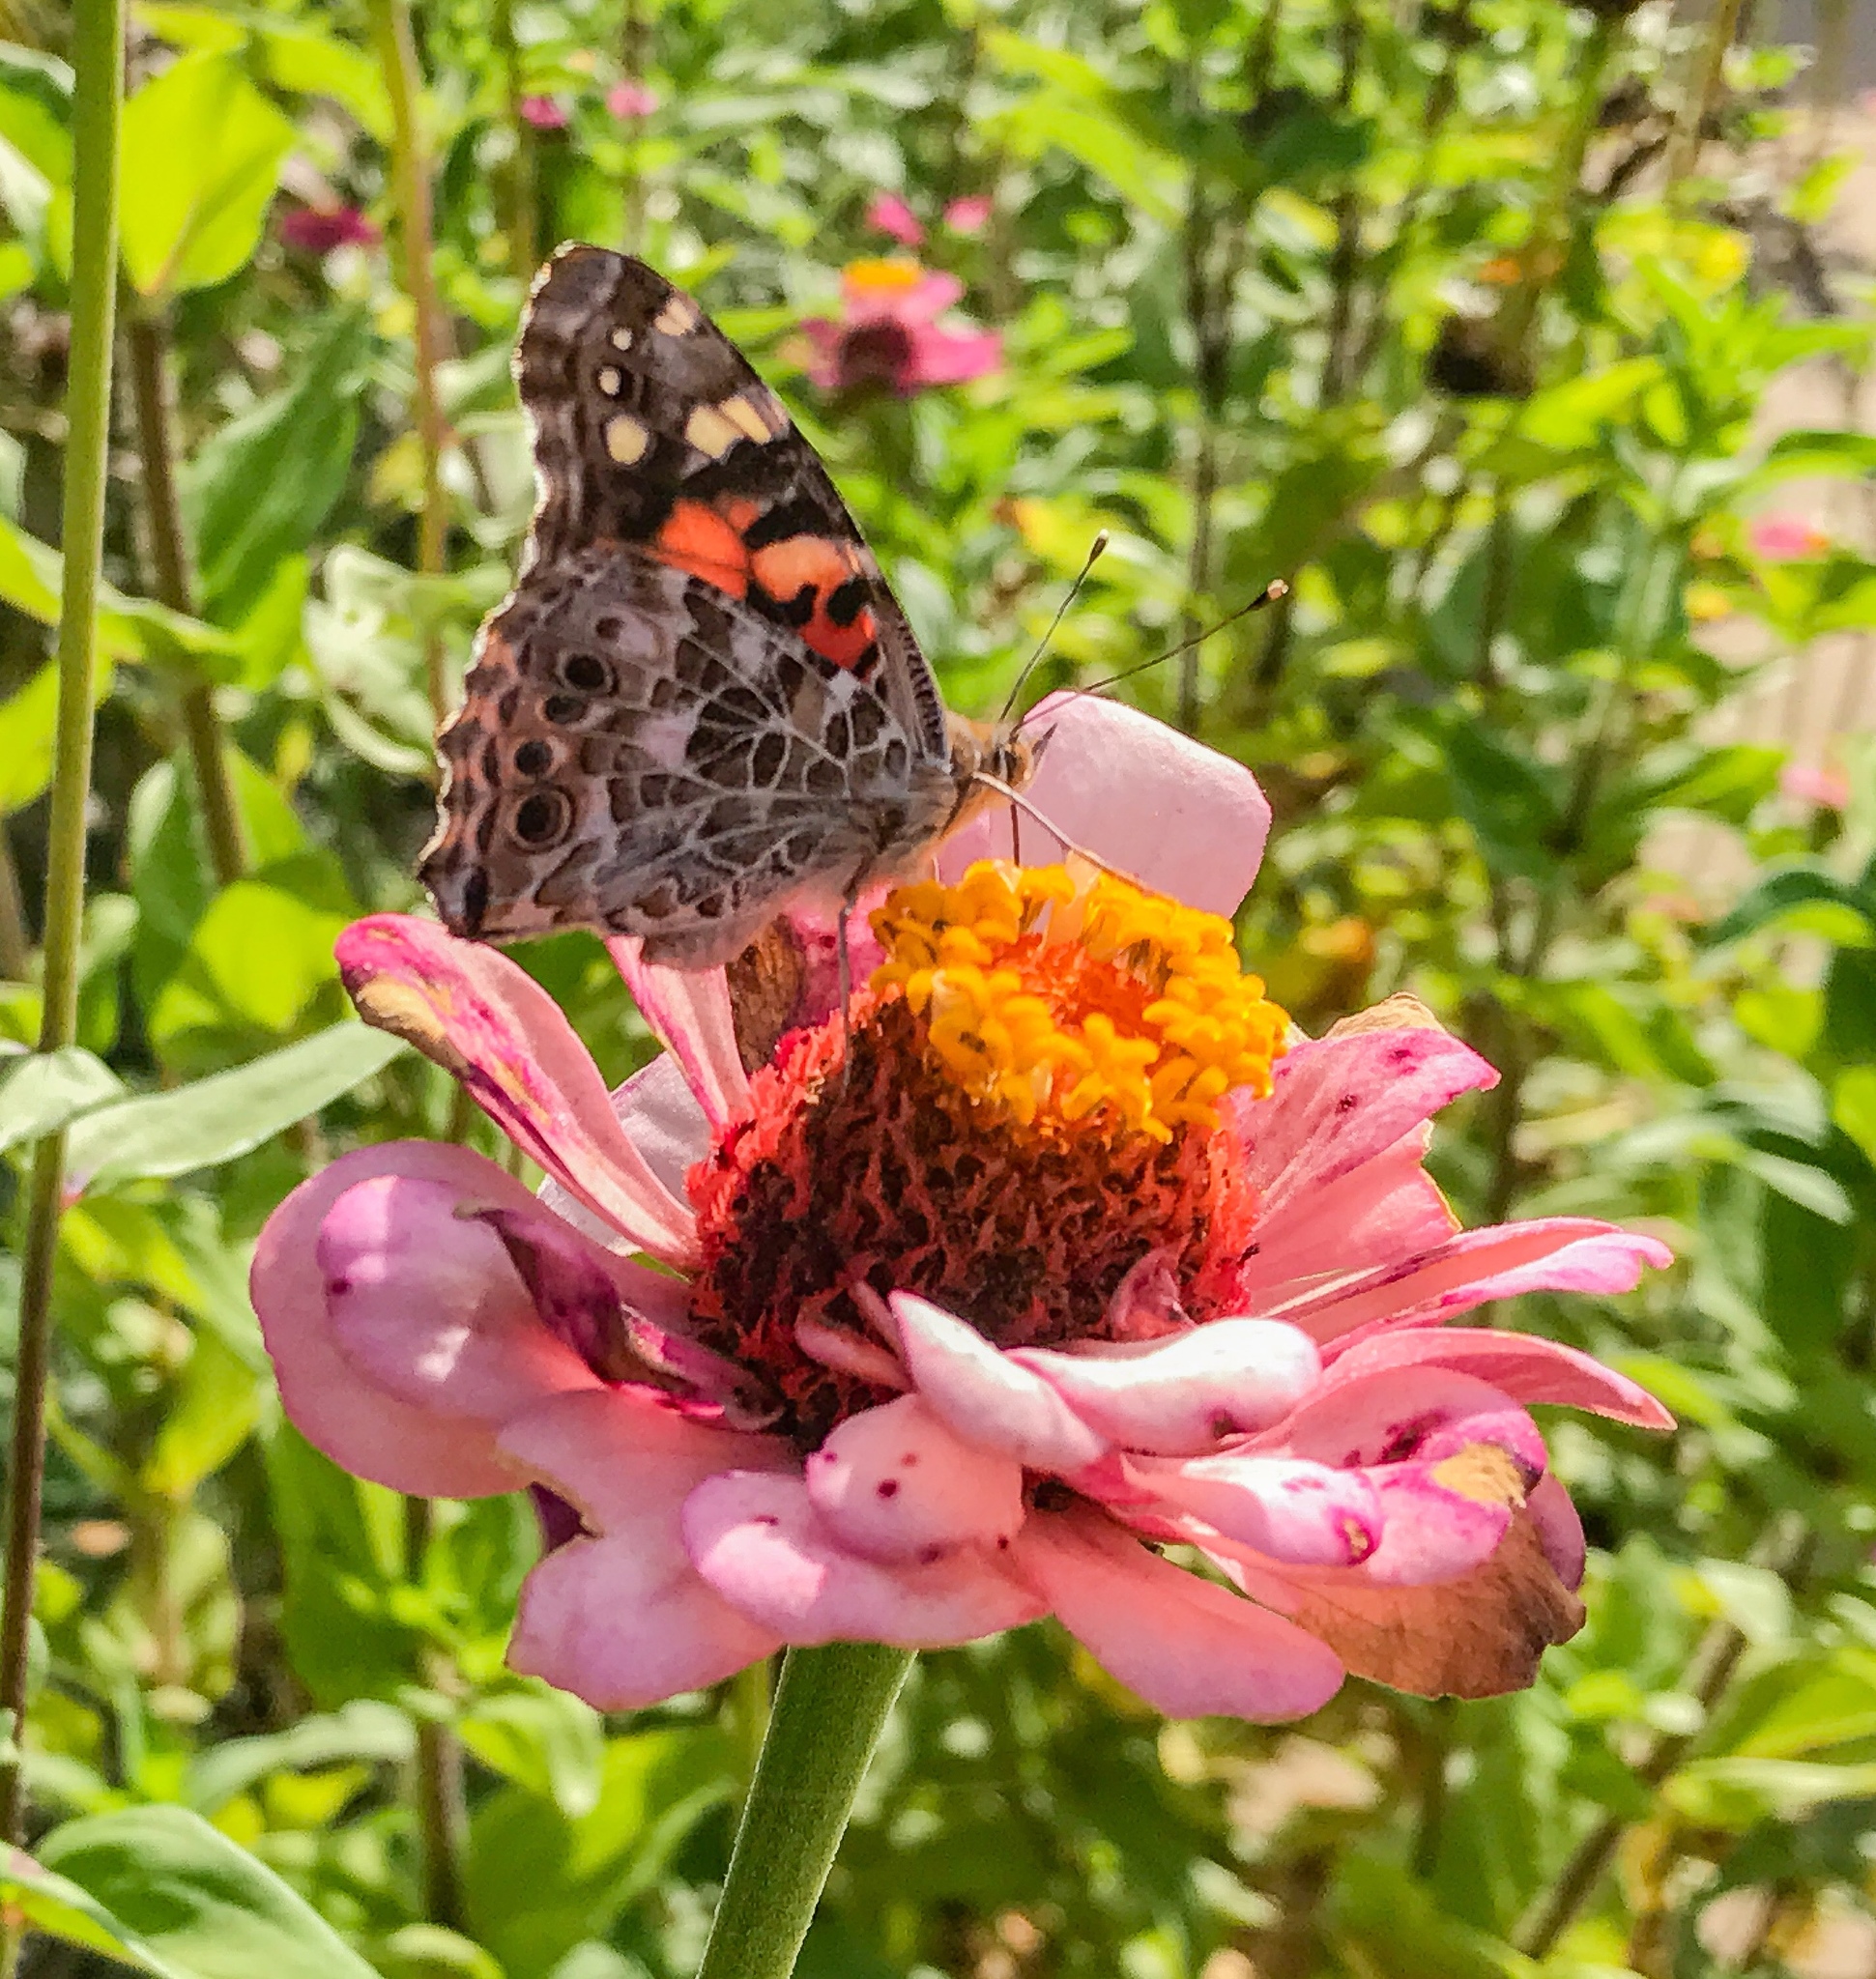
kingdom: Animalia
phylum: Arthropoda
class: Insecta
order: Lepidoptera
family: Nymphalidae
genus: Vanessa
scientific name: Vanessa cardui
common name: Painted lady
